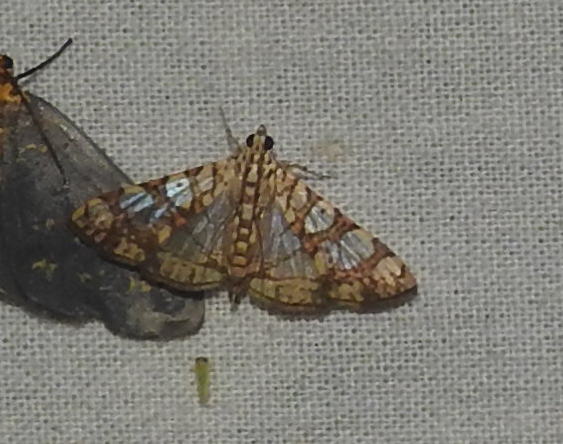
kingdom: Animalia
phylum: Arthropoda
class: Insecta
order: Lepidoptera
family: Crambidae
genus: Glyphodes
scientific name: Glyphodes caesalis
